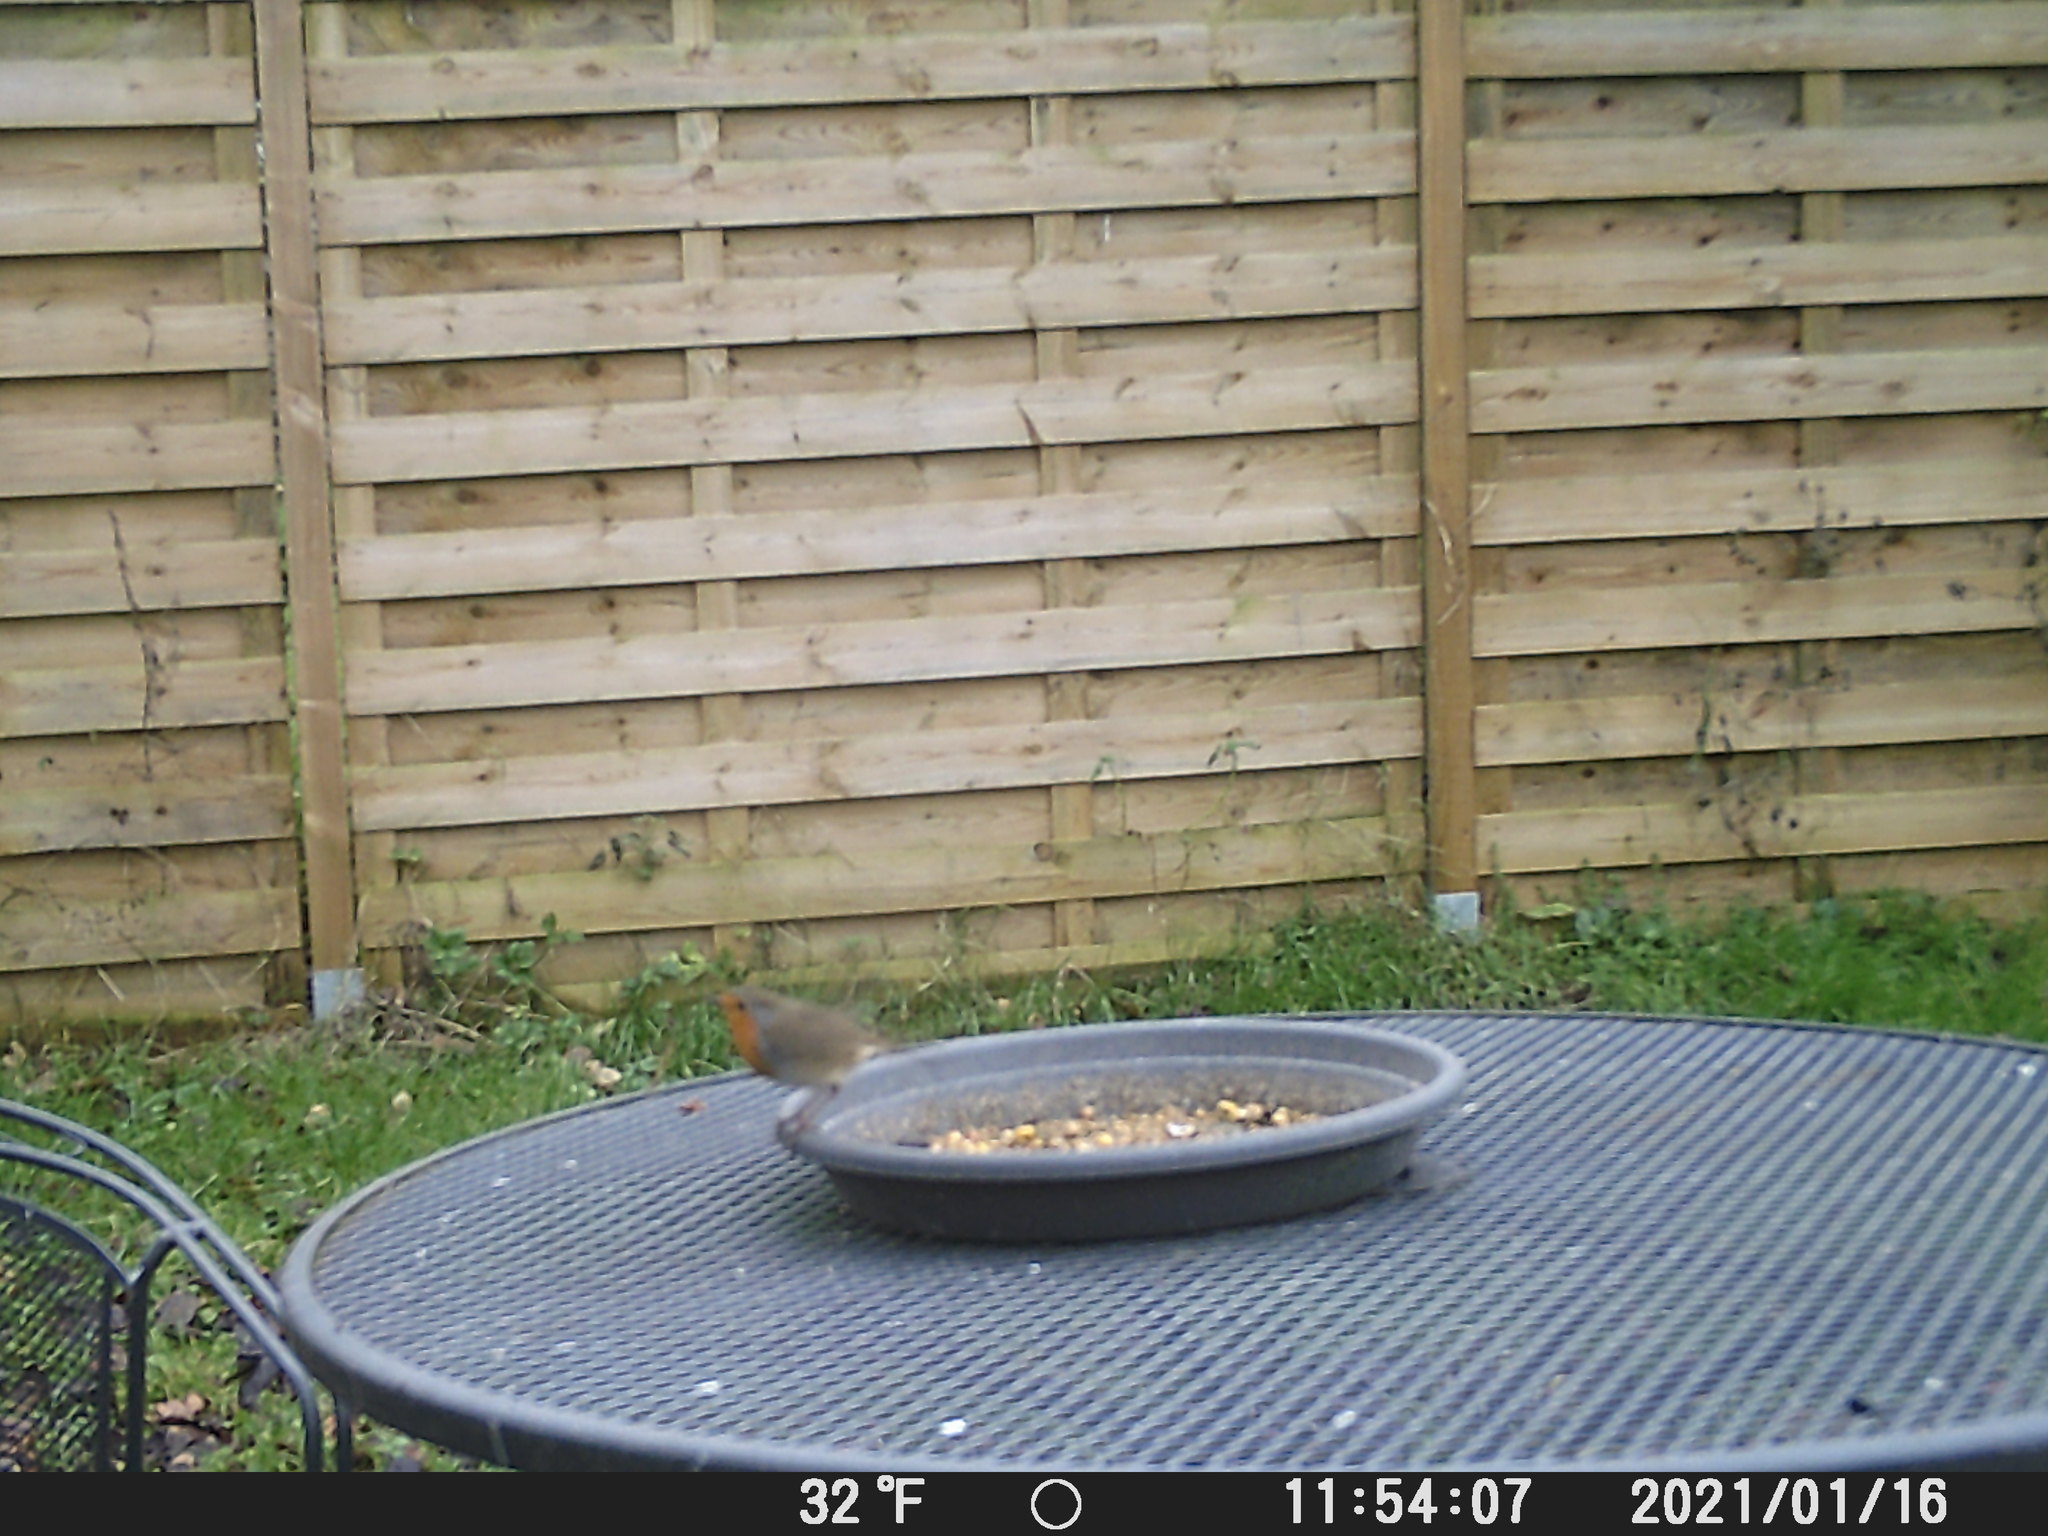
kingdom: Animalia
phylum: Chordata
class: Aves
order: Passeriformes
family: Muscicapidae
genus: Erithacus
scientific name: Erithacus rubecula
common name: European robin
